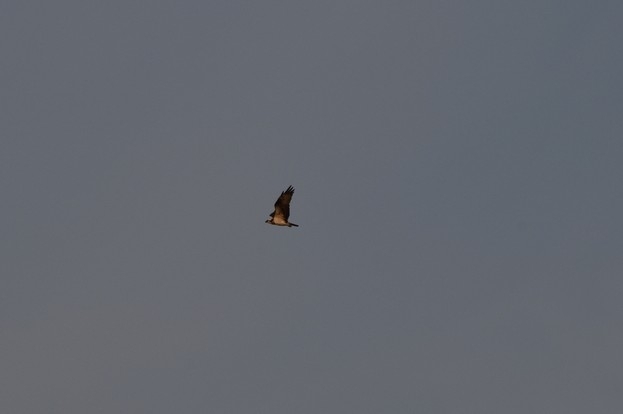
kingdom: Animalia
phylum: Chordata
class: Aves
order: Accipitriformes
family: Pandionidae
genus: Pandion
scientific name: Pandion haliaetus
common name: Osprey
